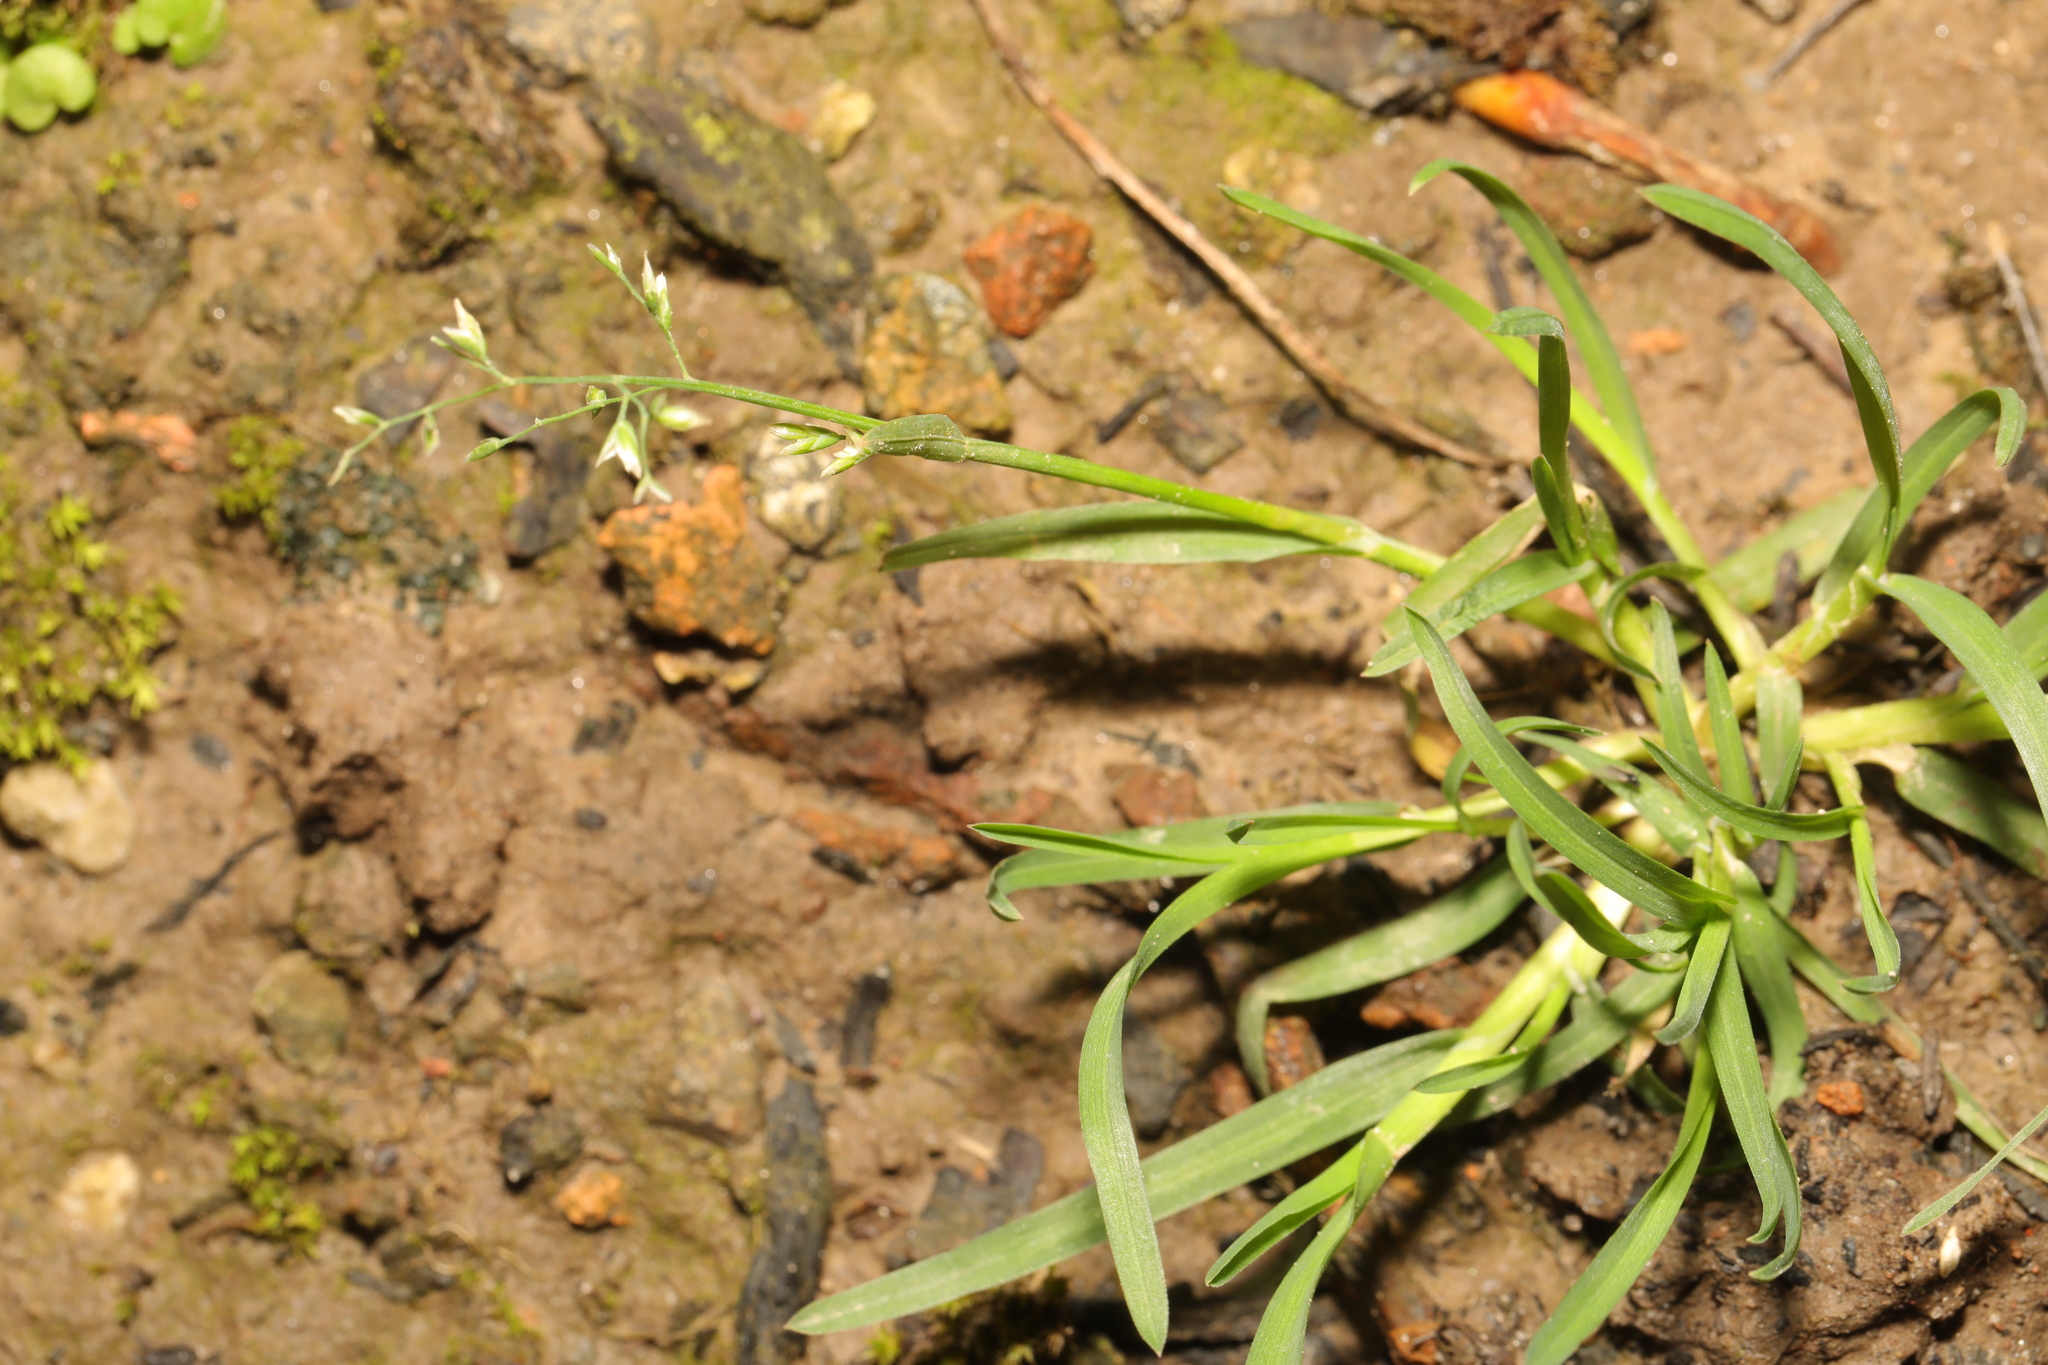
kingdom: Plantae
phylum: Tracheophyta
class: Liliopsida
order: Poales
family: Poaceae
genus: Poa
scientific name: Poa annua
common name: Annual bluegrass
